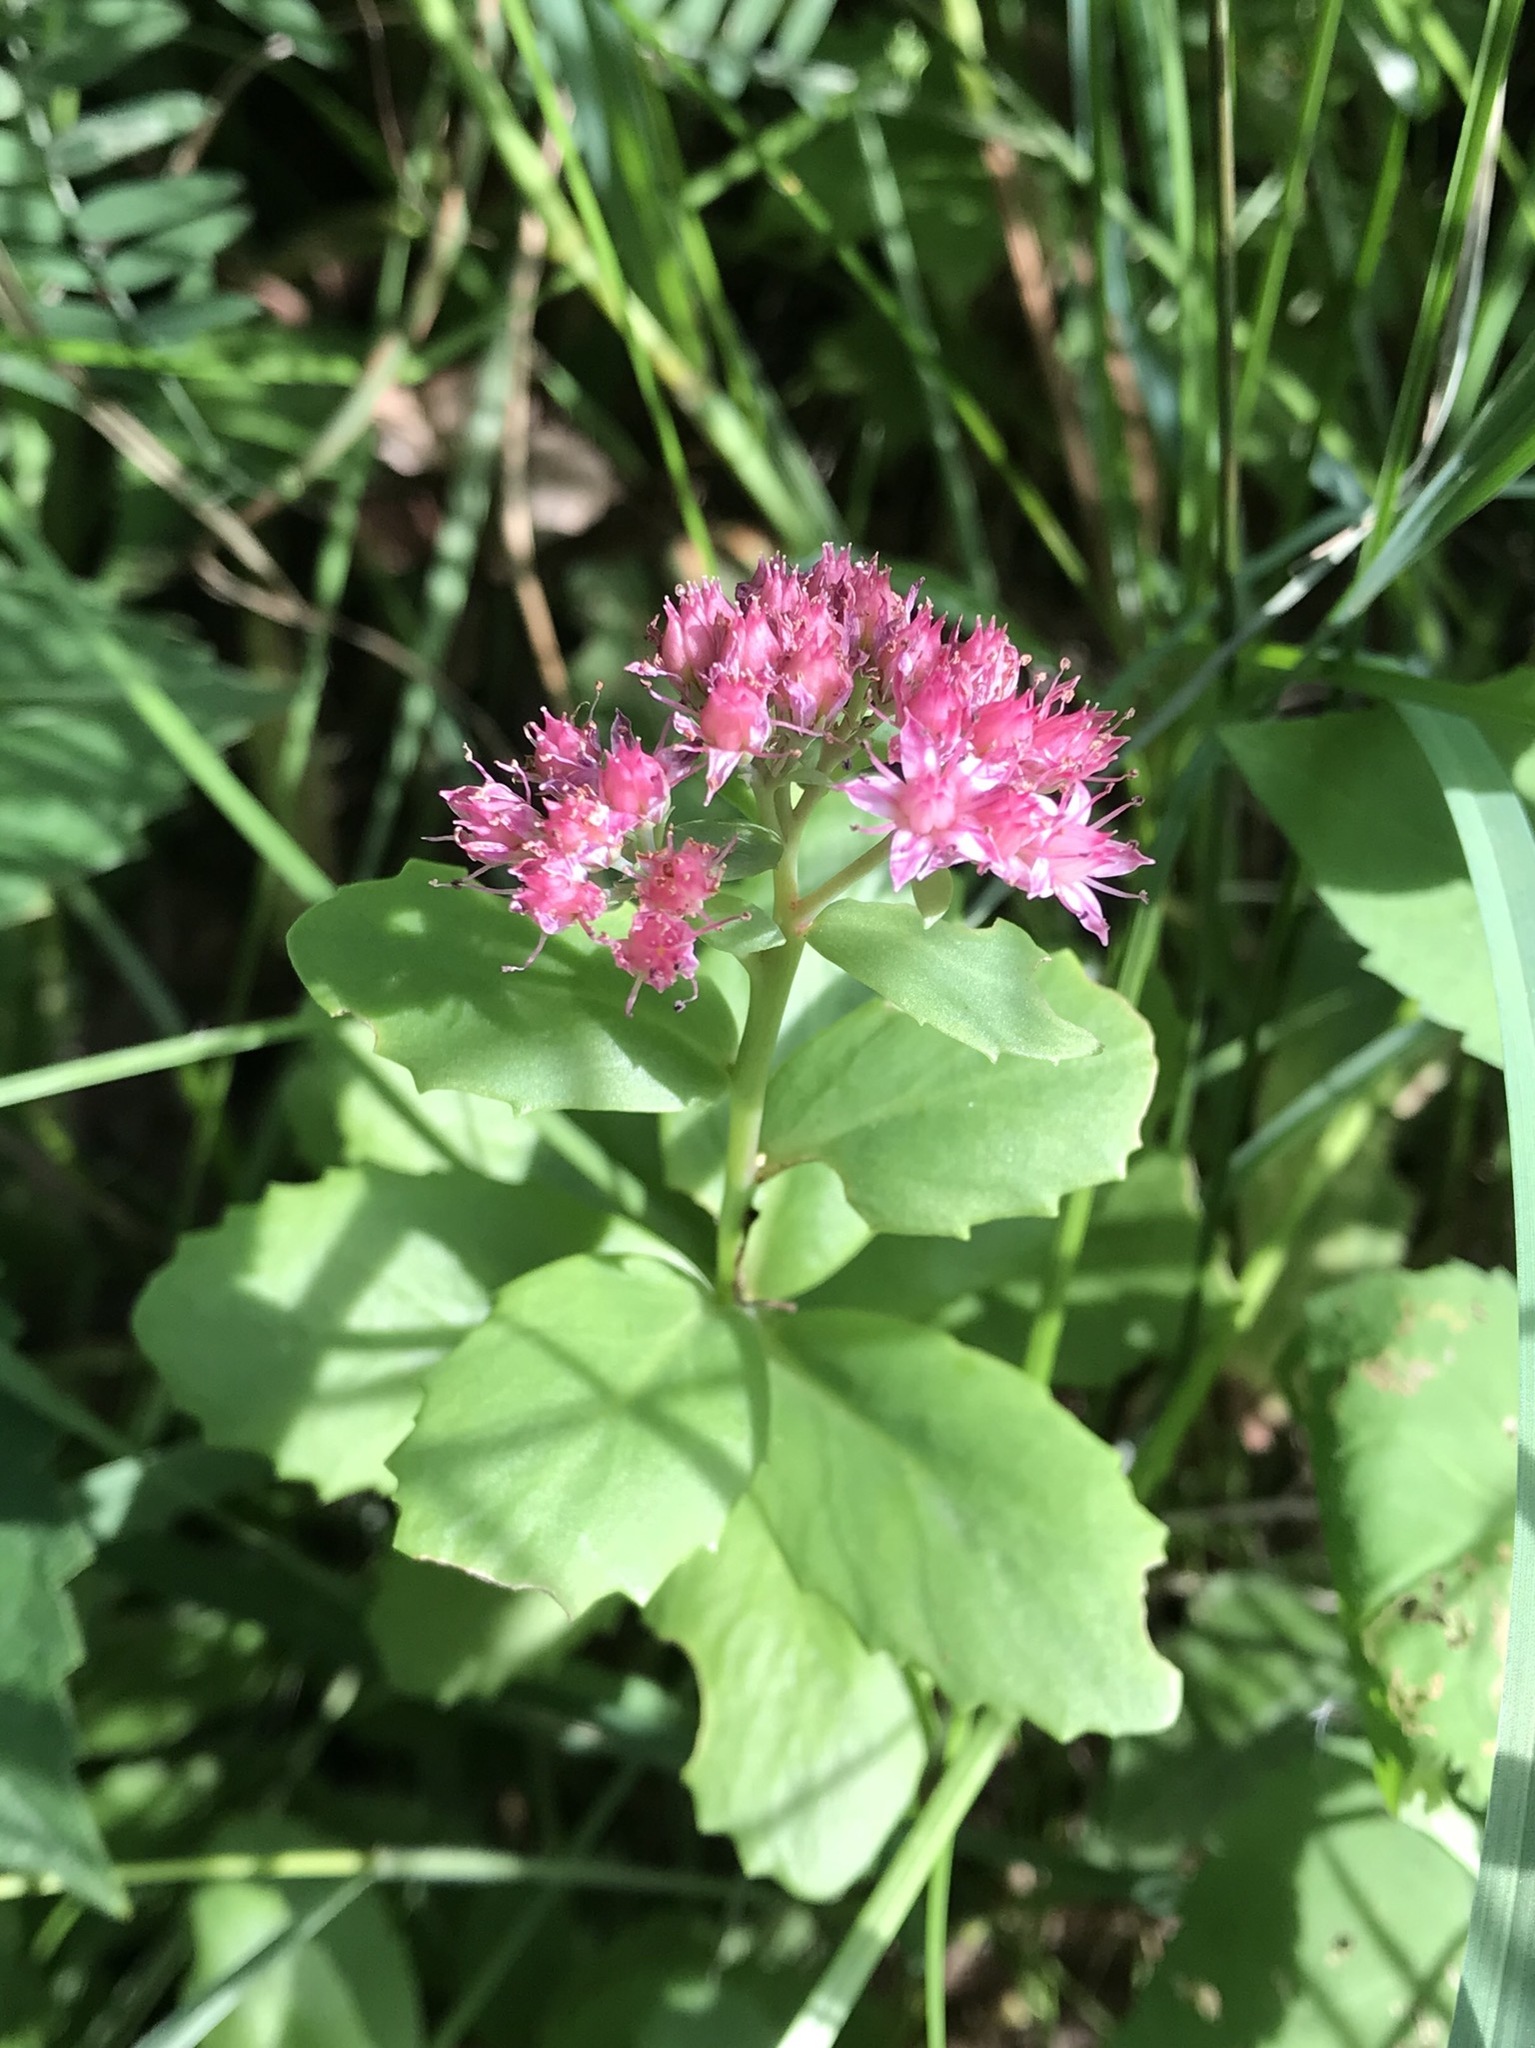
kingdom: Plantae
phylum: Tracheophyta
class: Magnoliopsida
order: Saxifragales
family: Crassulaceae
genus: Hylotelephium
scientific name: Hylotelephium telephium
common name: Live-forever
